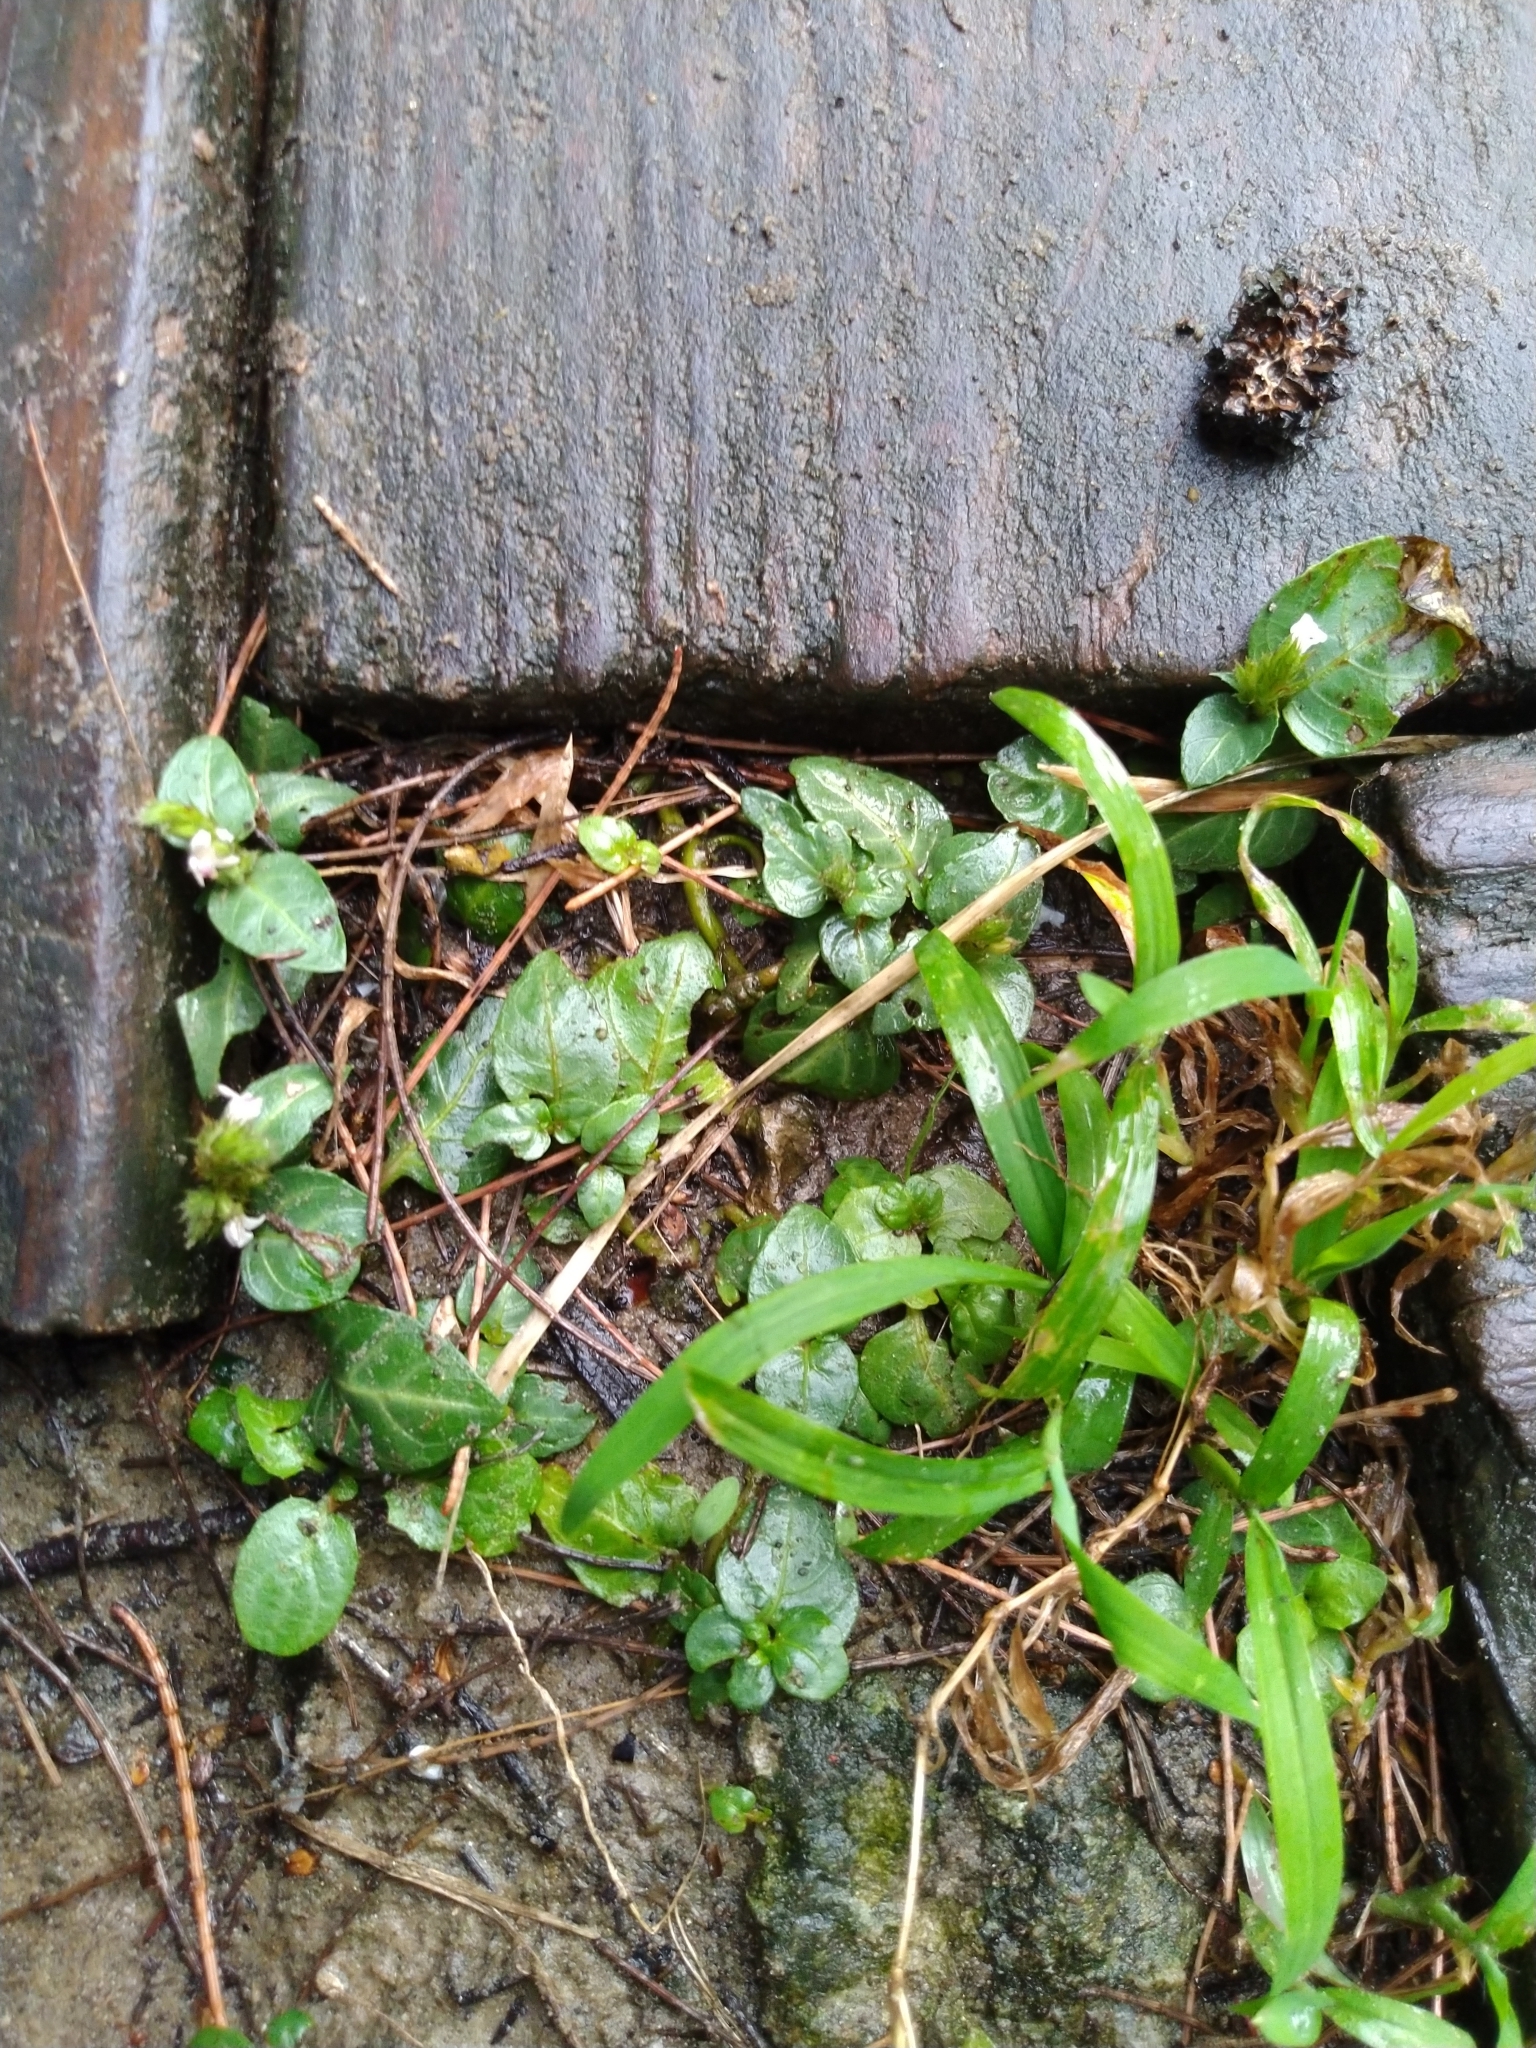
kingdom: Plantae
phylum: Tracheophyta
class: Magnoliopsida
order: Lamiales
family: Acanthaceae
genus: Lepidagathis
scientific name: Lepidagathis inaequalis
